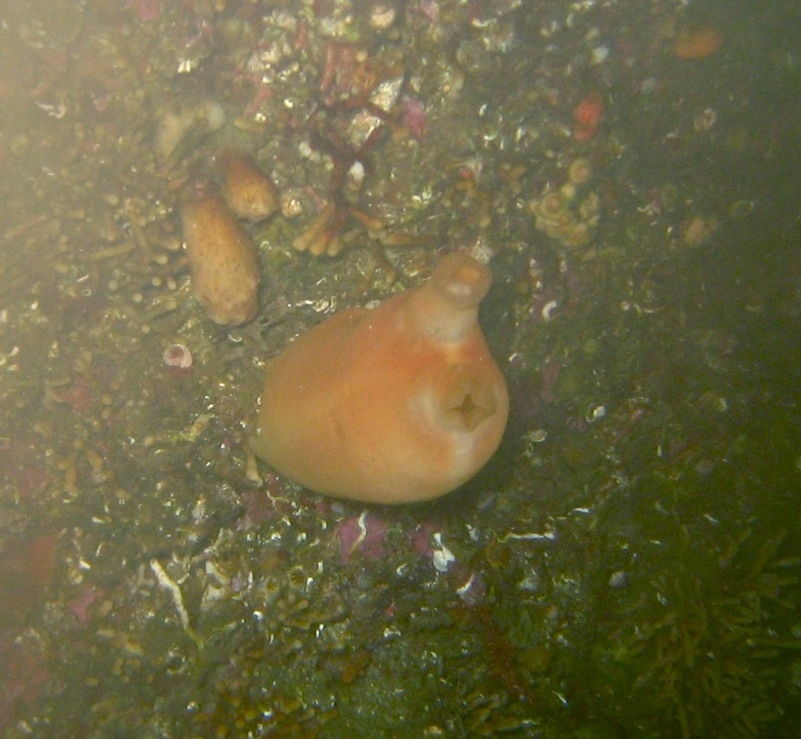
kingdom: Animalia
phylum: Chordata
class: Ascidiacea
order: Stolidobranchia
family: Pyuridae
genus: Halocynthia
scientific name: Halocynthia aurantium
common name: Sea peach
